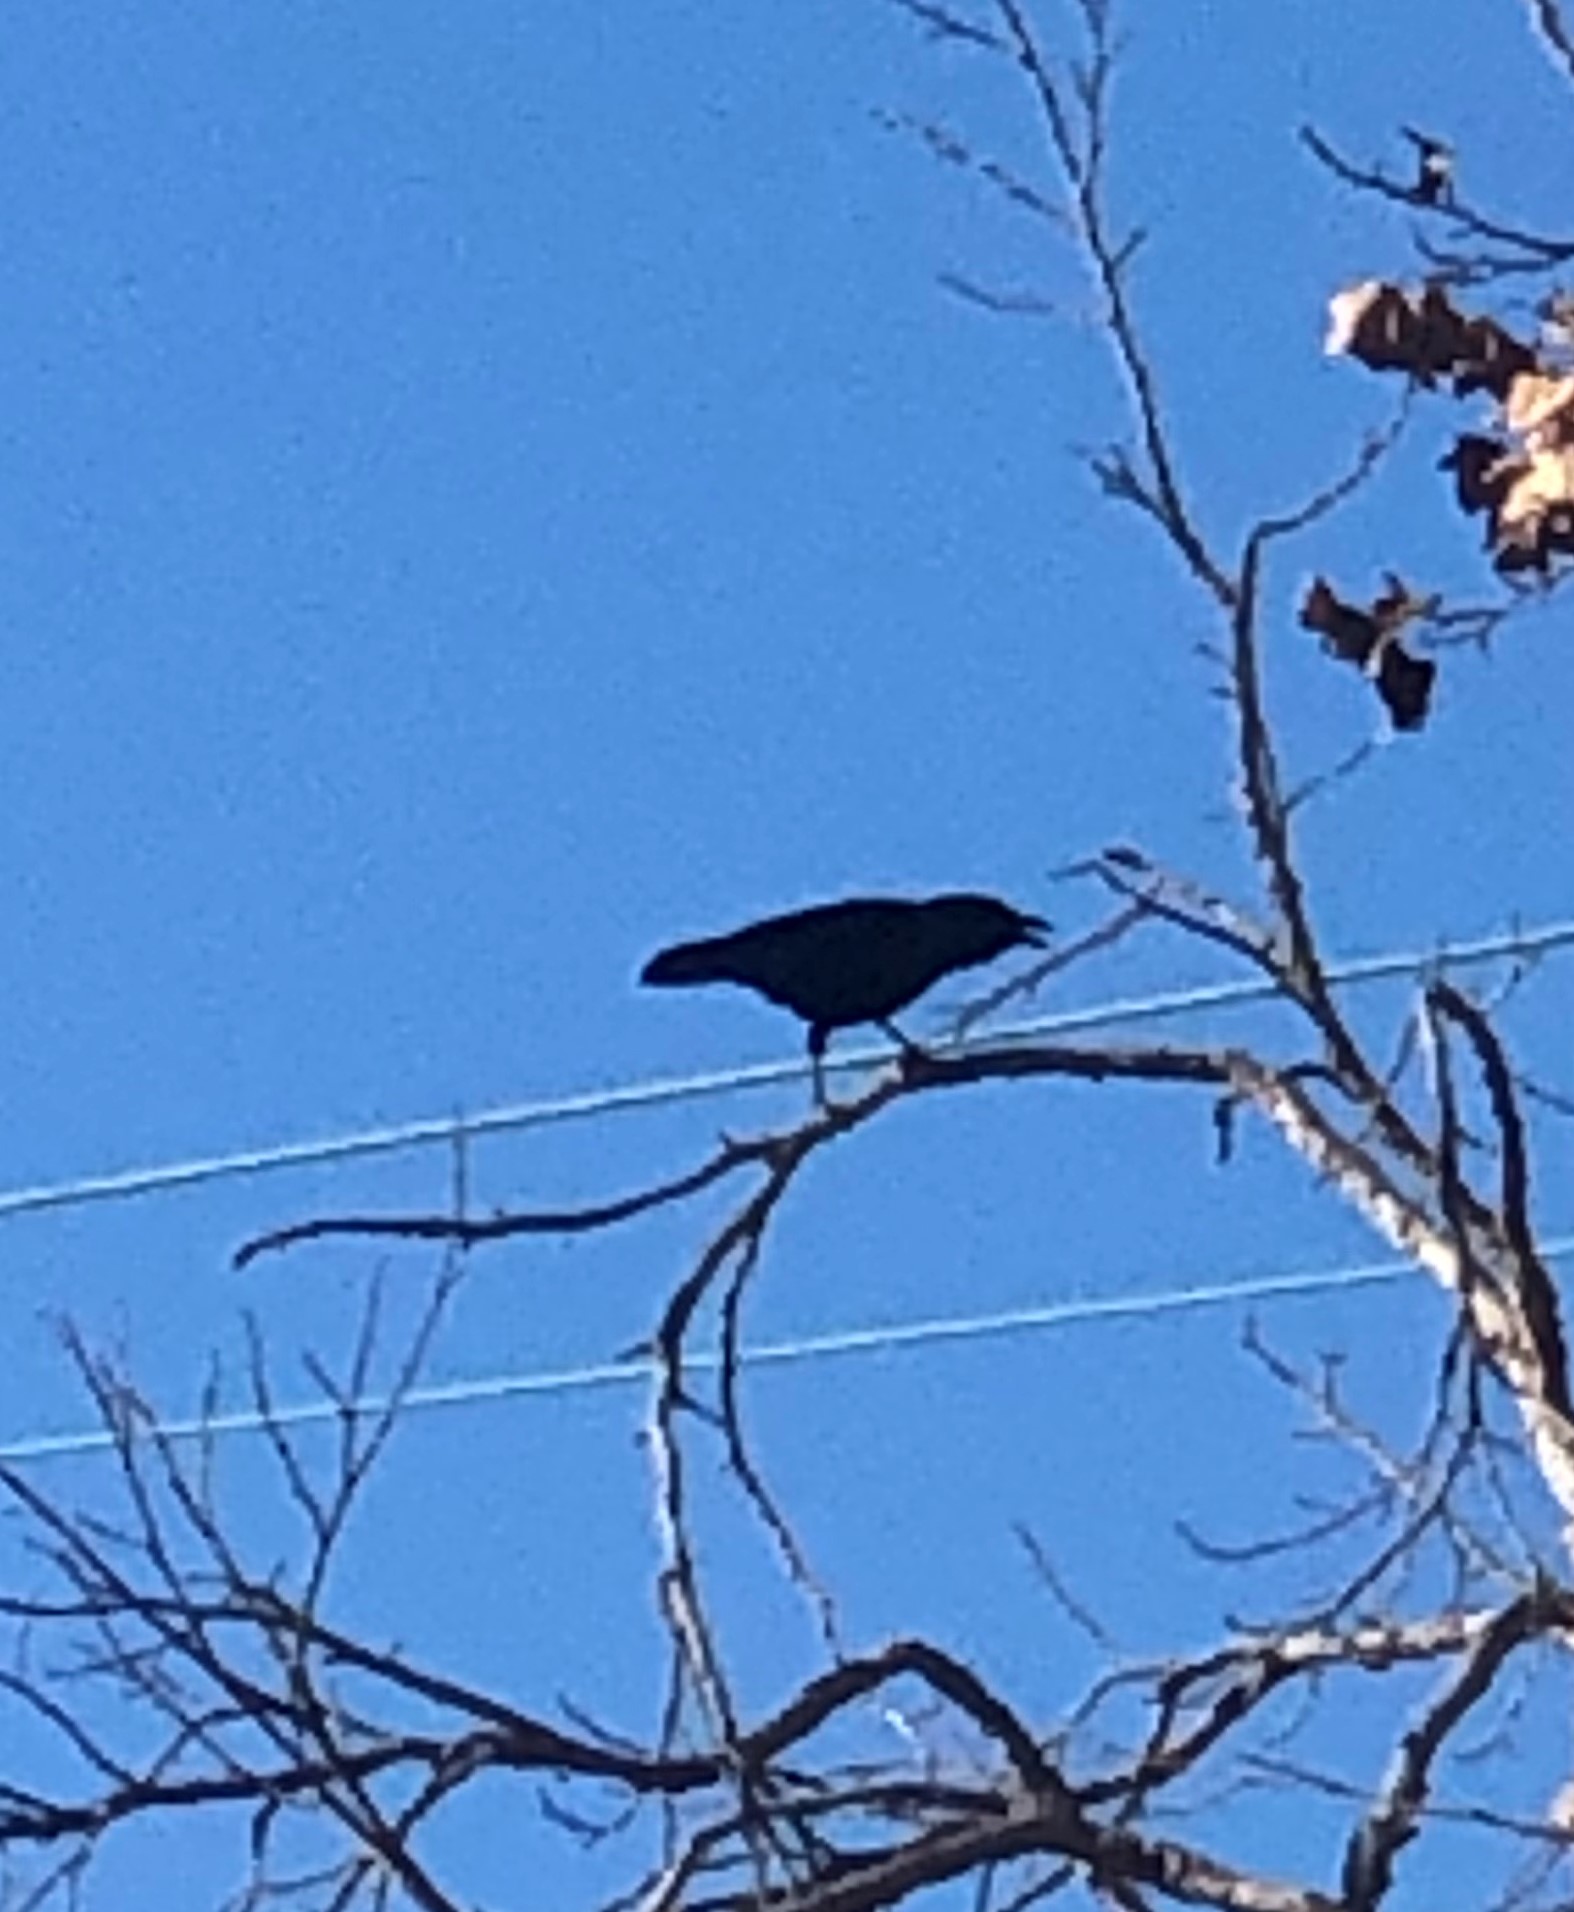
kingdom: Animalia
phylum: Chordata
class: Aves
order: Passeriformes
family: Corvidae
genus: Corvus
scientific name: Corvus brachyrhynchos
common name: American crow
